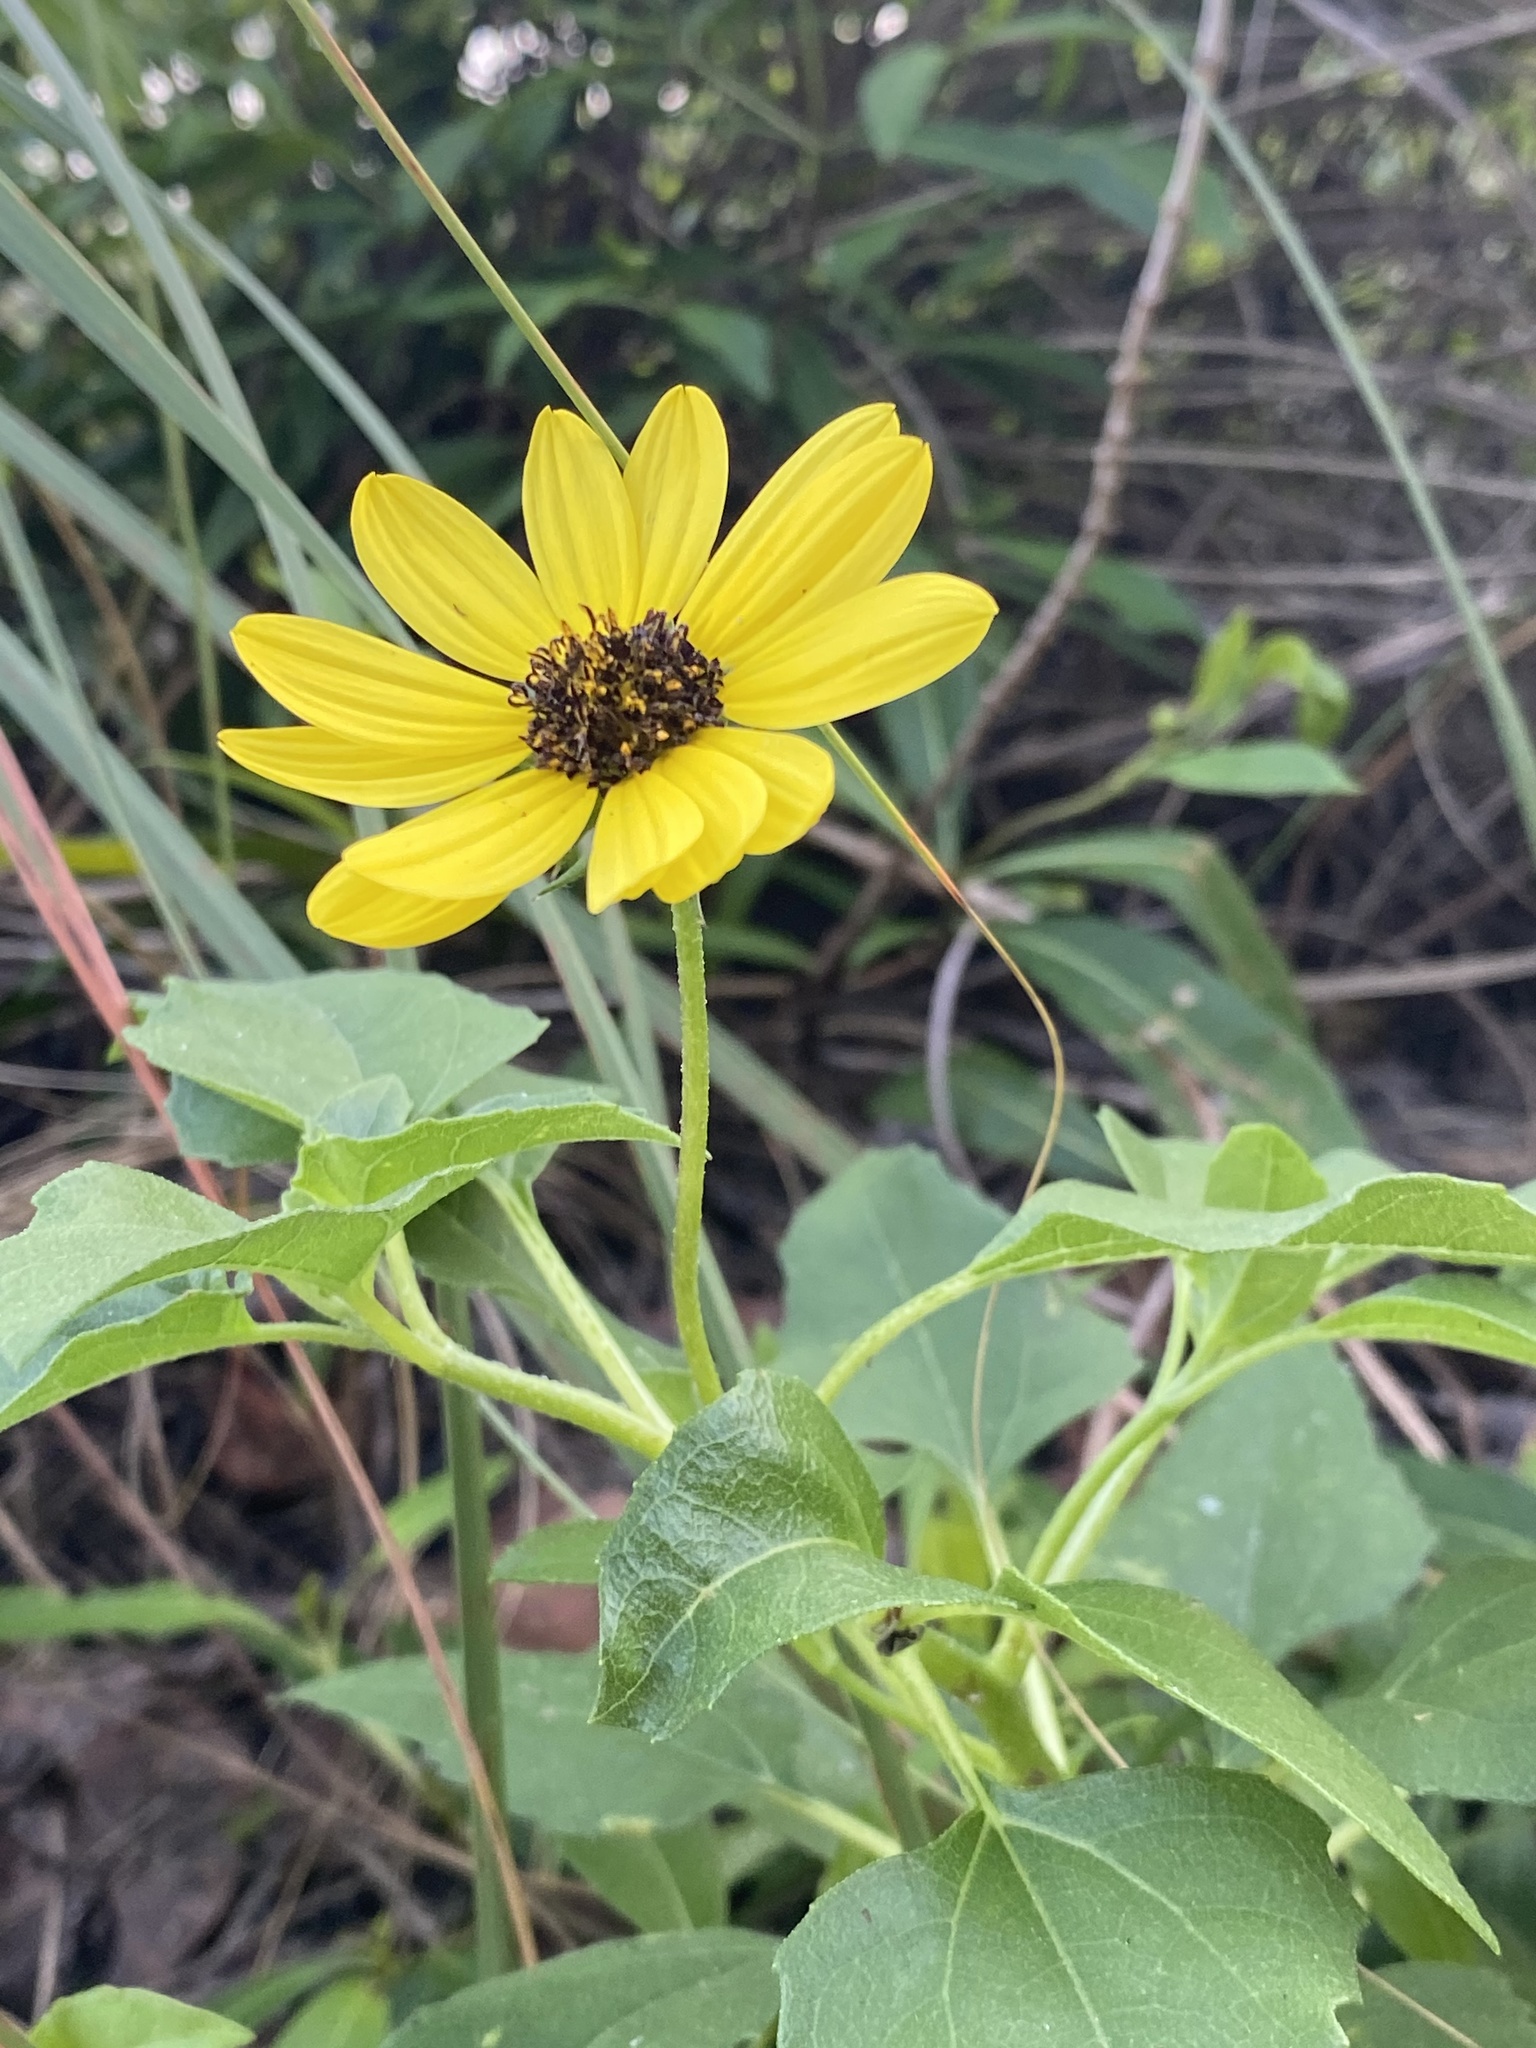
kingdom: Plantae
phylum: Tracheophyta
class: Magnoliopsida
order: Asterales
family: Asteraceae
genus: Helianthus
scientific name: Helianthus debilis
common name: Weak sunflower
